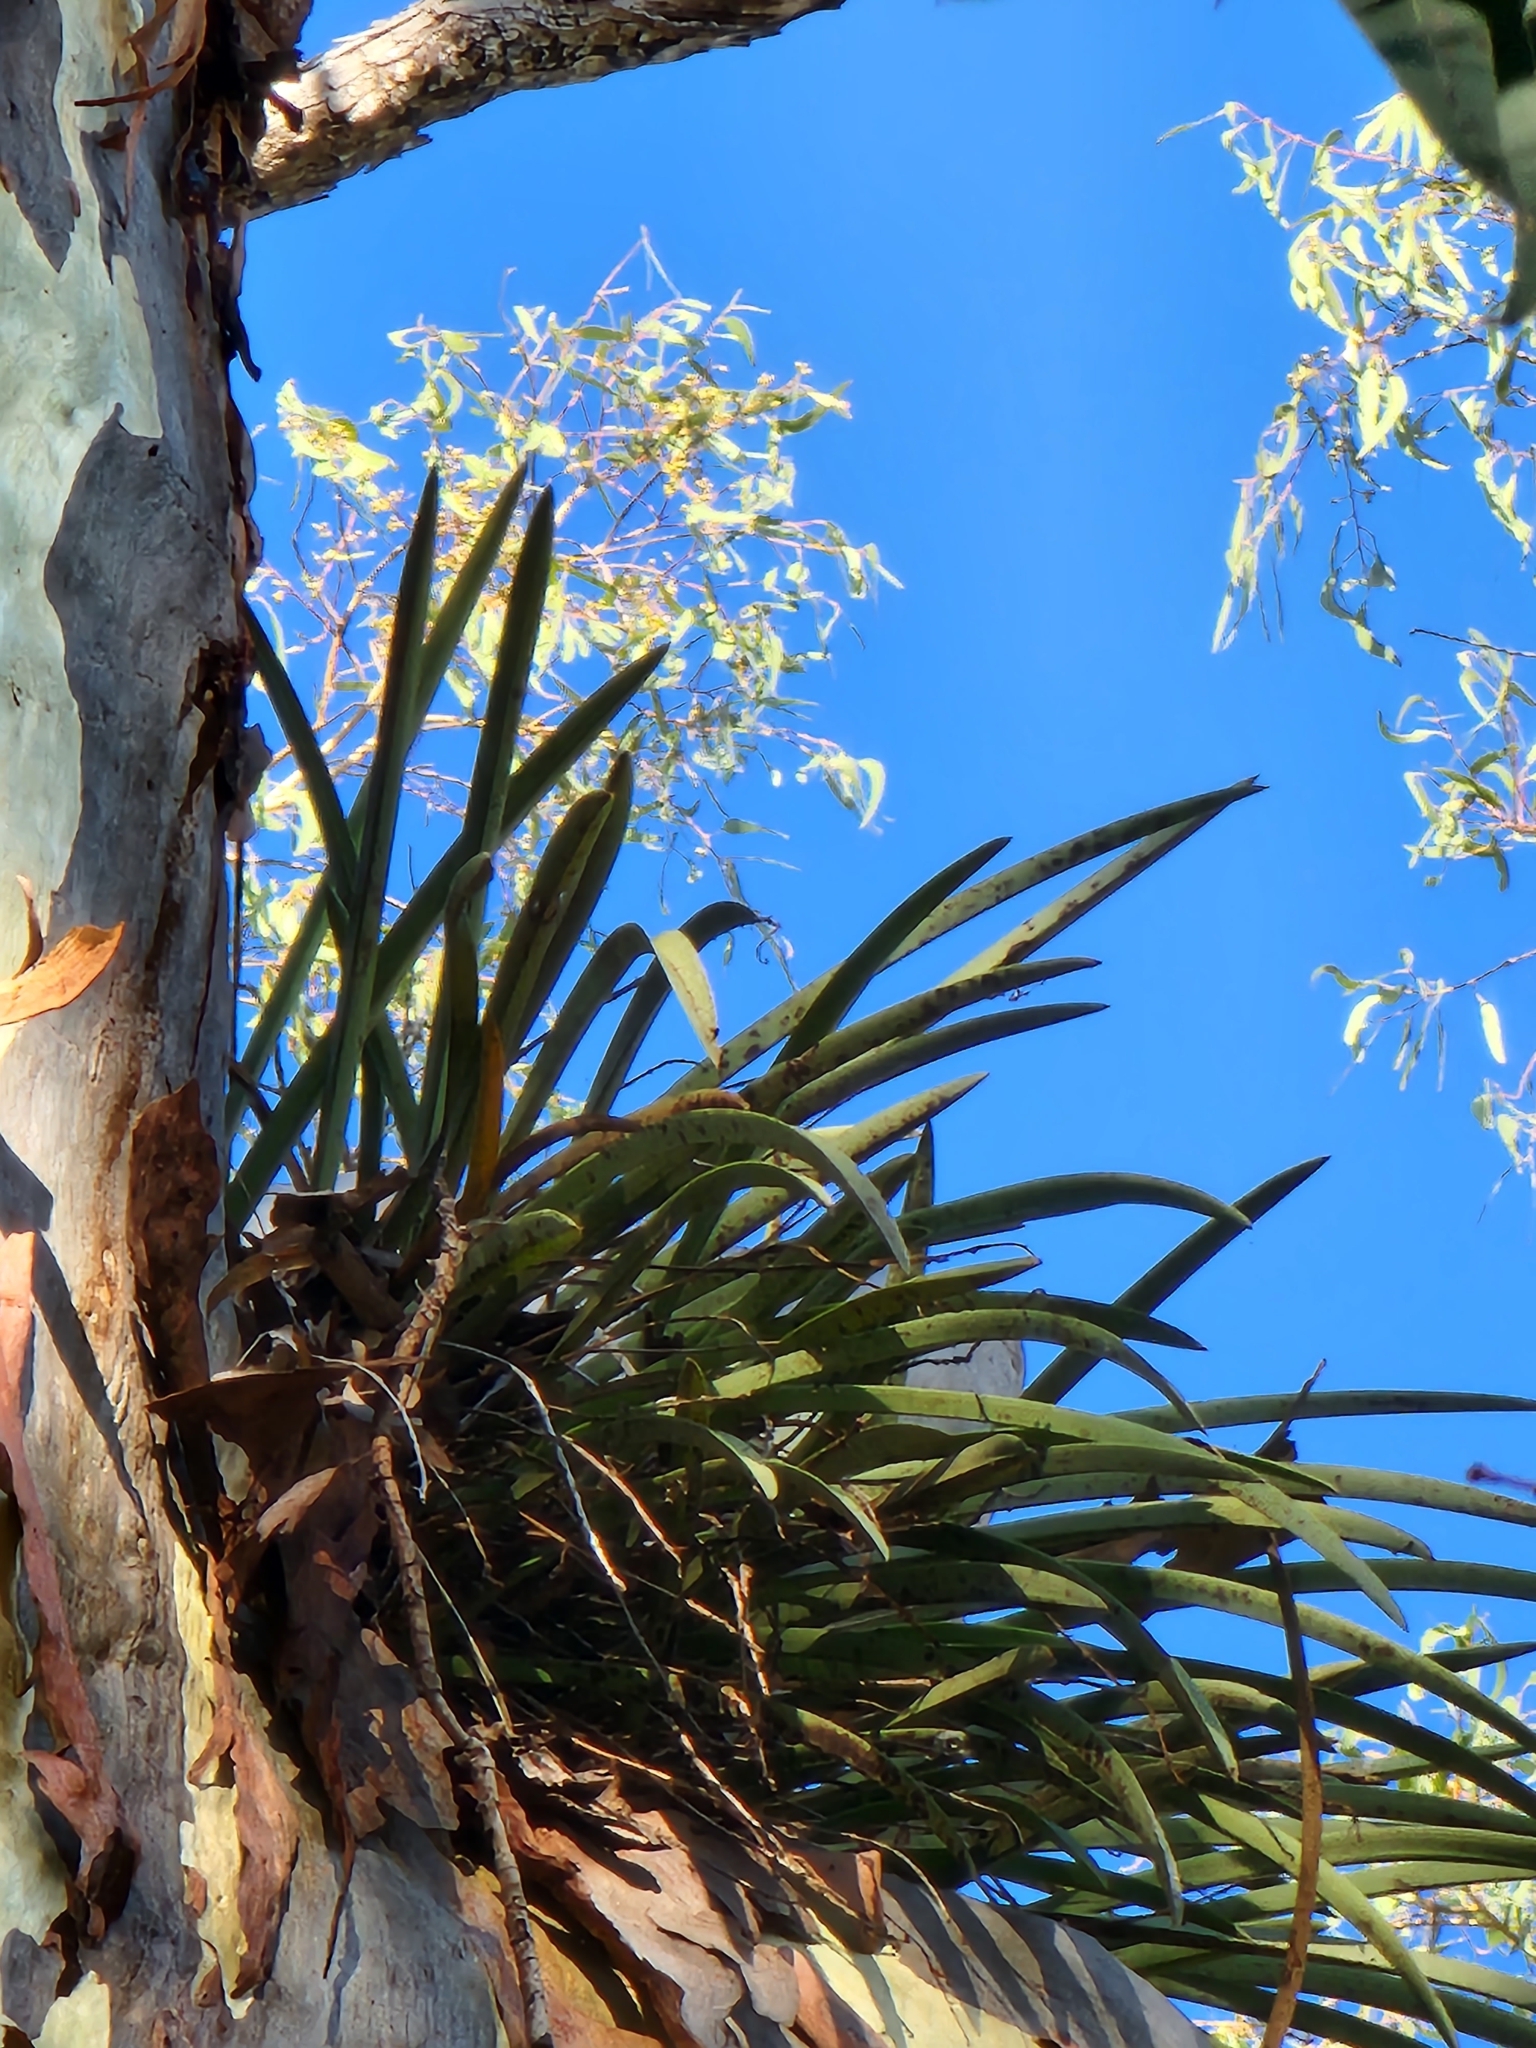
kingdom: Plantae
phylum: Tracheophyta
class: Liliopsida
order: Asparagales
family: Orchidaceae
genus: Cymbidium
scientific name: Cymbidium canaliculatum
